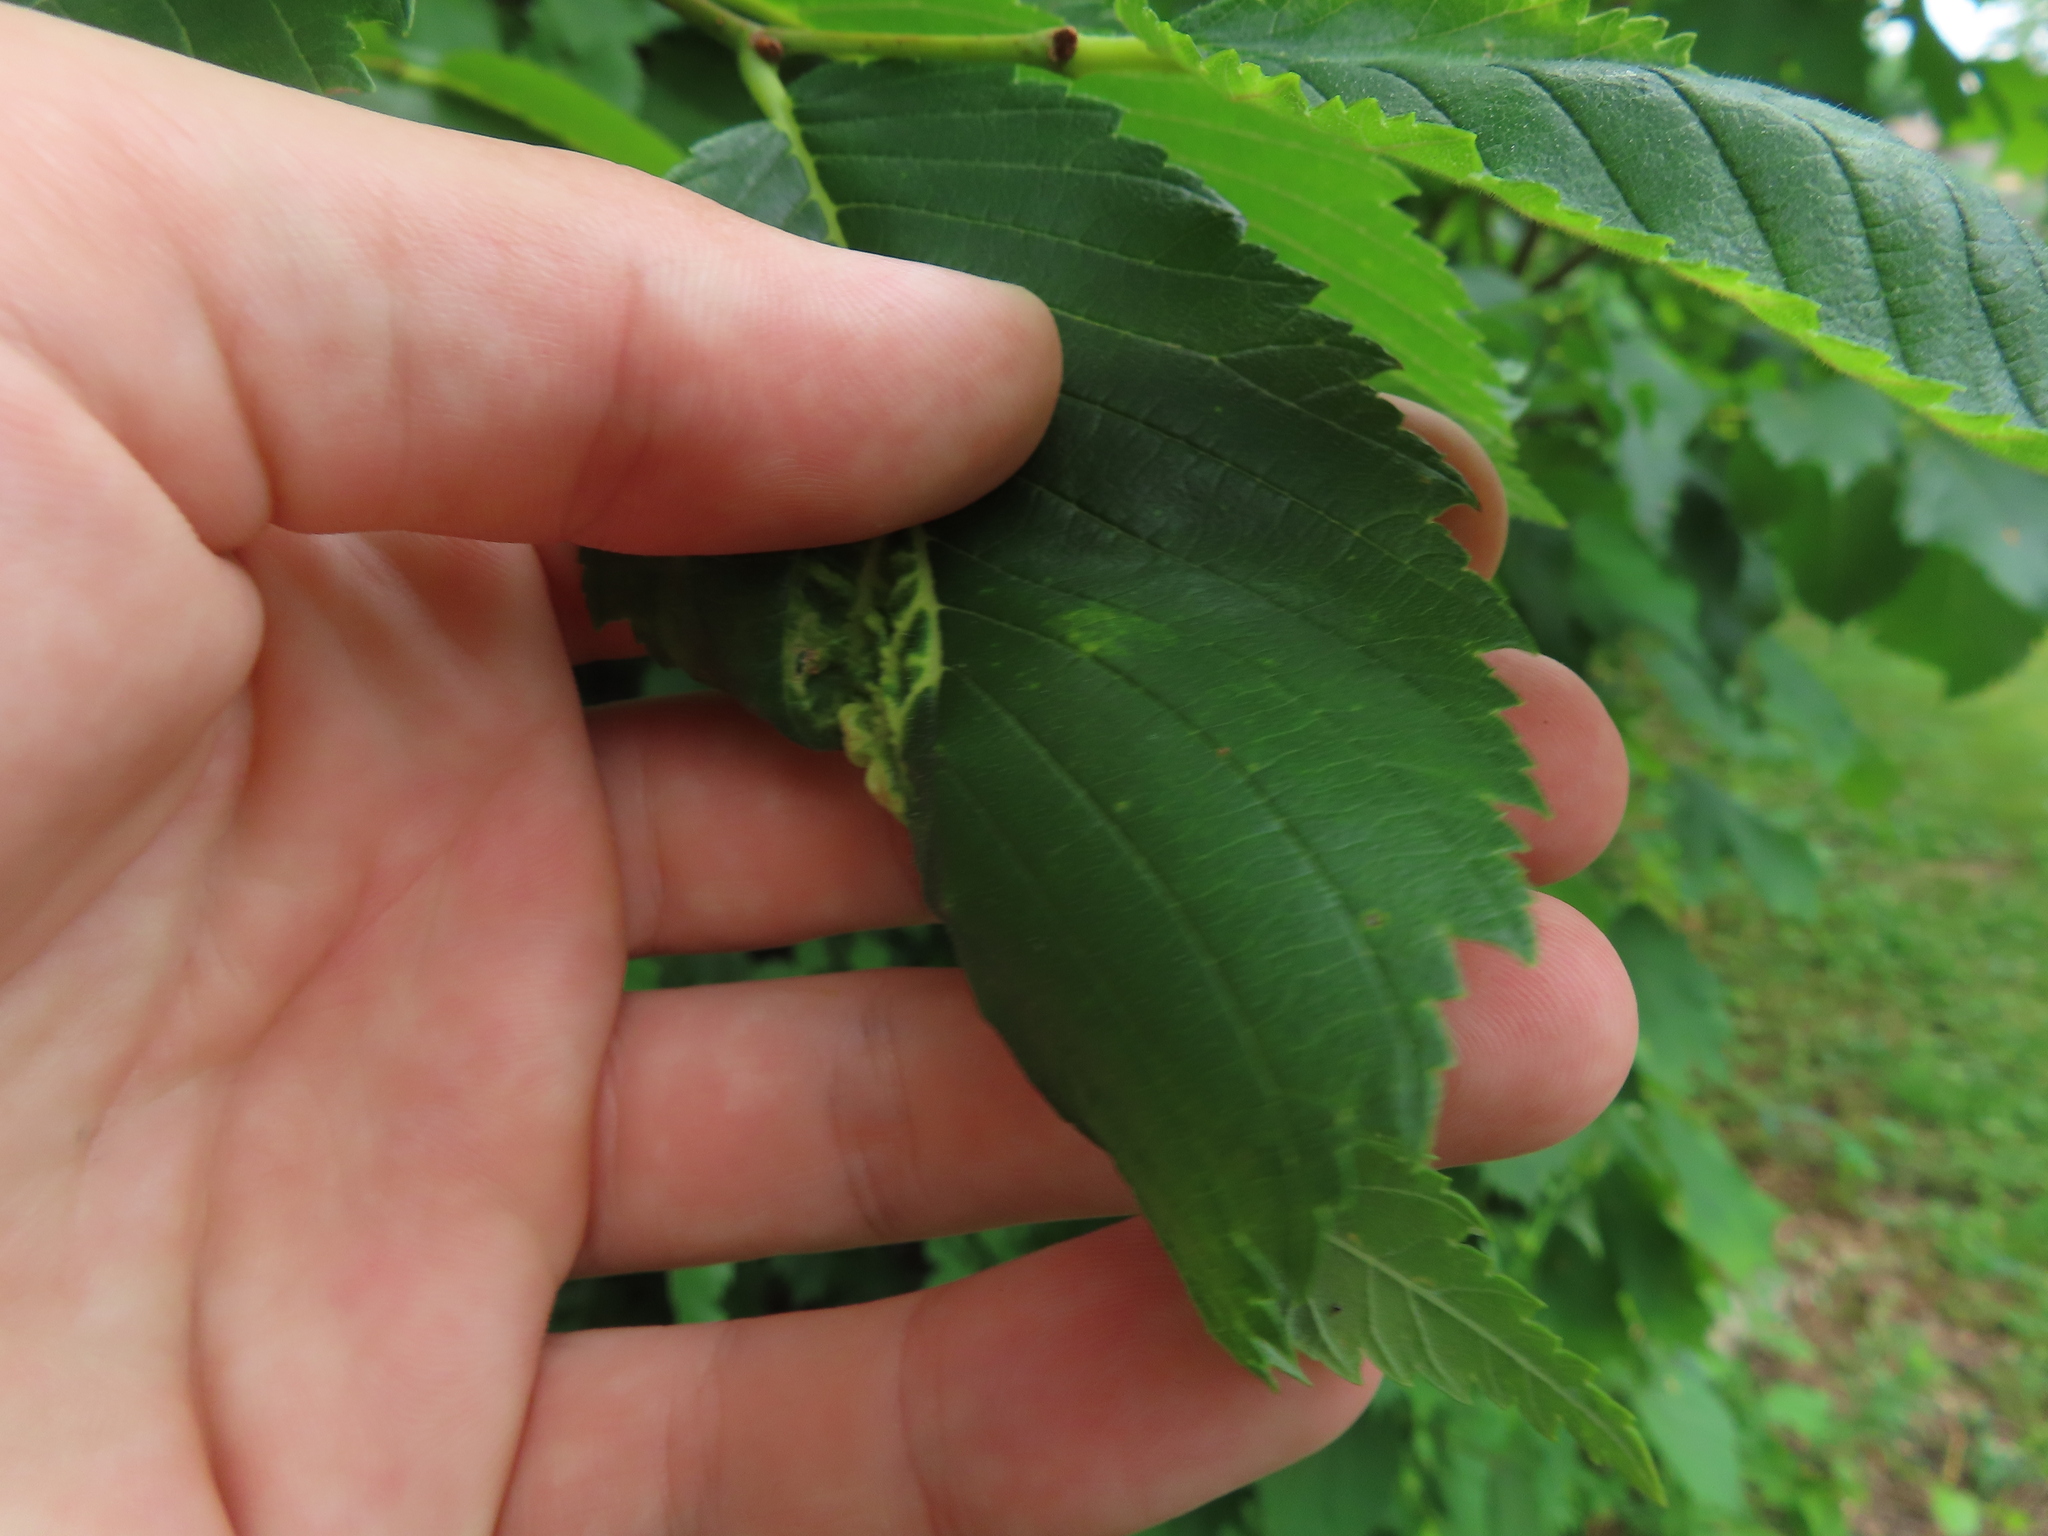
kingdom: Animalia
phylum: Arthropoda
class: Insecta
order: Hemiptera
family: Aphididae
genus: Eriosoma
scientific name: Eriosoma americanum
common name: Woolly elm aphid
